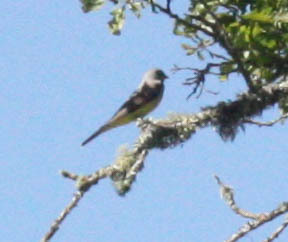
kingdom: Animalia
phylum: Chordata
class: Aves
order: Passeriformes
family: Tyrannidae
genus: Tyrannus
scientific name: Tyrannus verticalis
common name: Western kingbird
